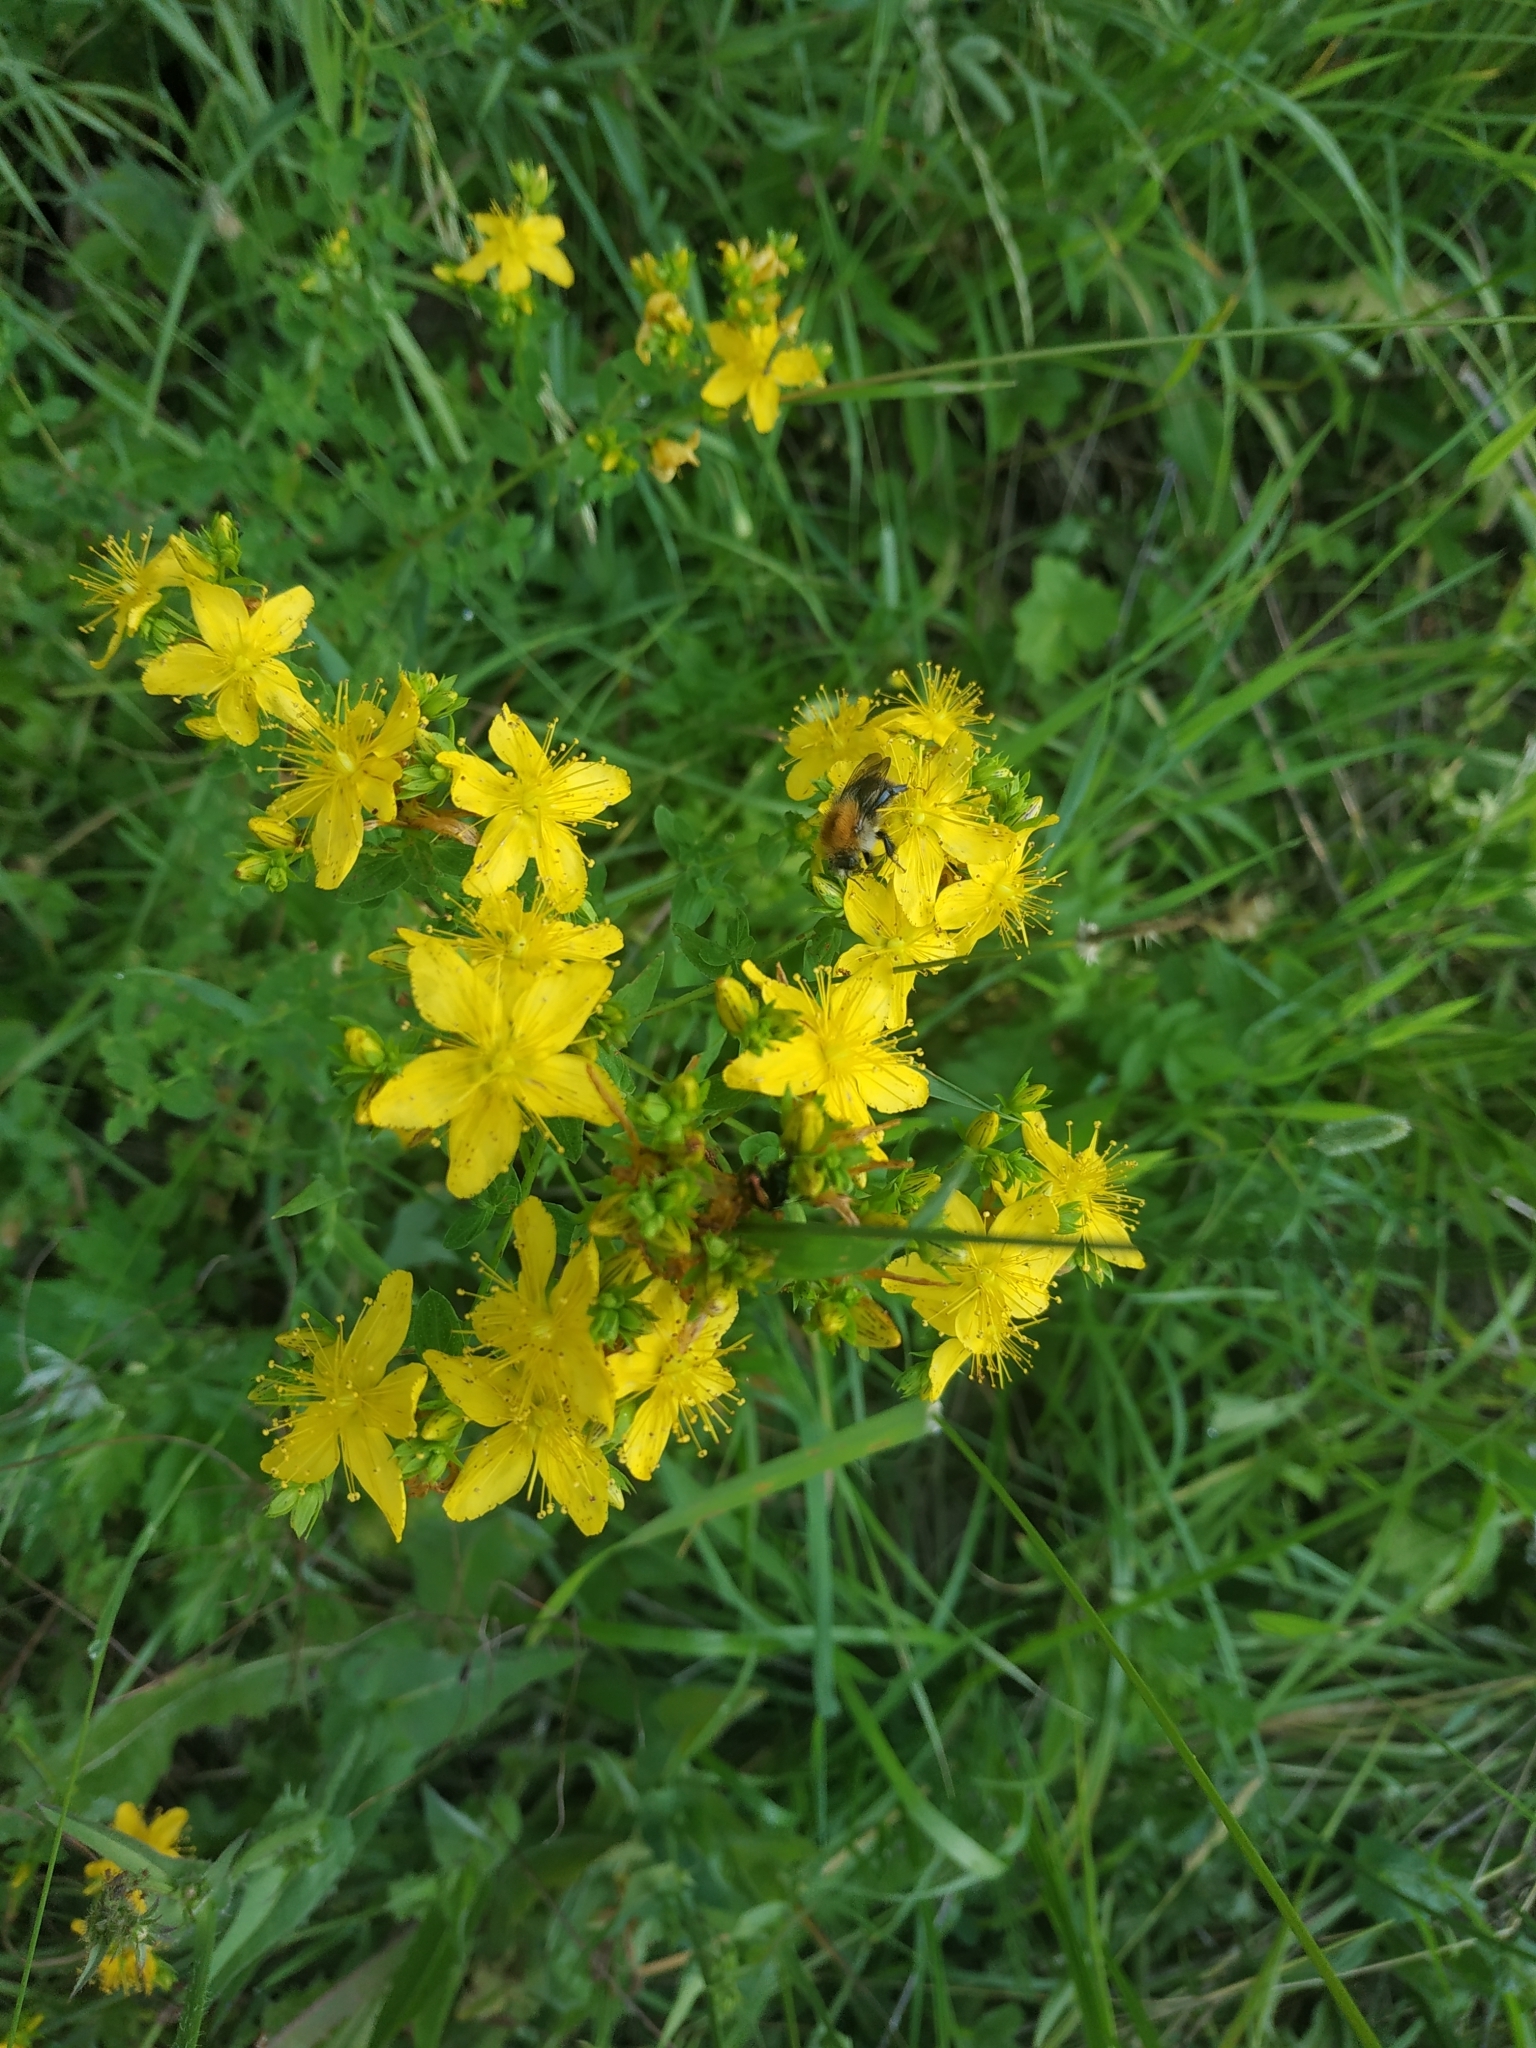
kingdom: Plantae
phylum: Tracheophyta
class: Magnoliopsida
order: Malpighiales
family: Hypericaceae
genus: Hypericum
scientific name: Hypericum perforatum
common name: Common st. johnswort
